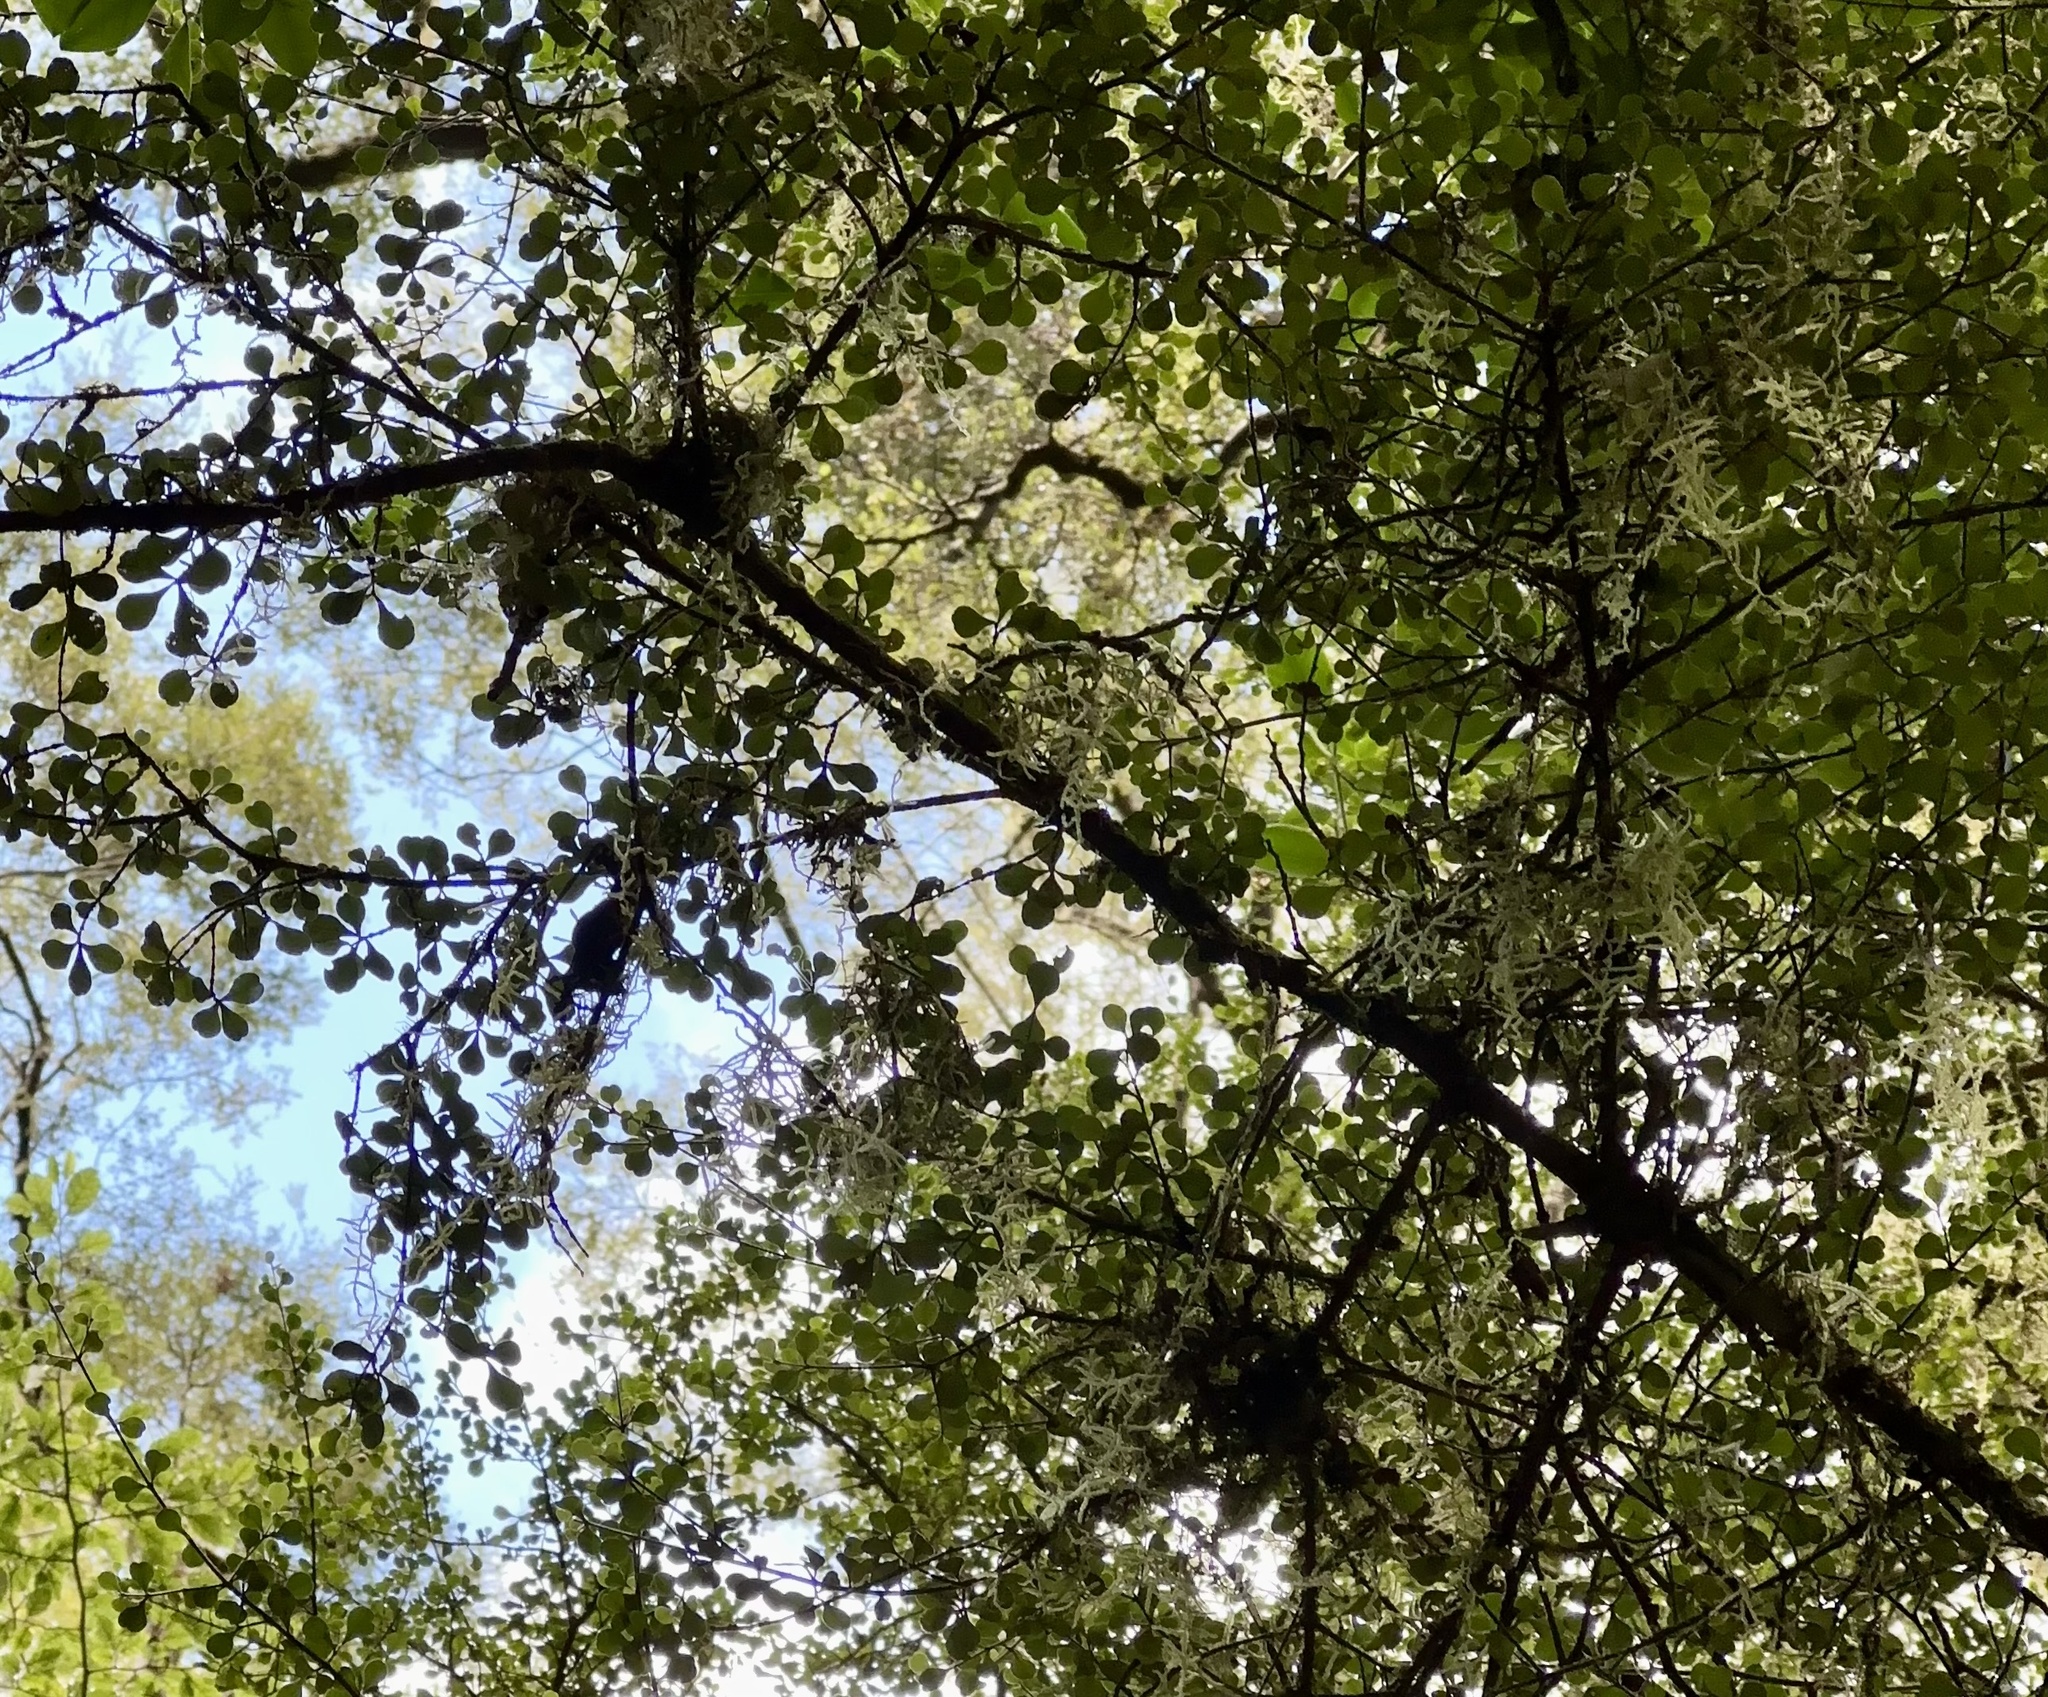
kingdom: Plantae
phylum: Tracheophyta
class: Magnoliopsida
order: Myrtales
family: Myrtaceae
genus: Lophomyrtus
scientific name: Lophomyrtus obcordata
